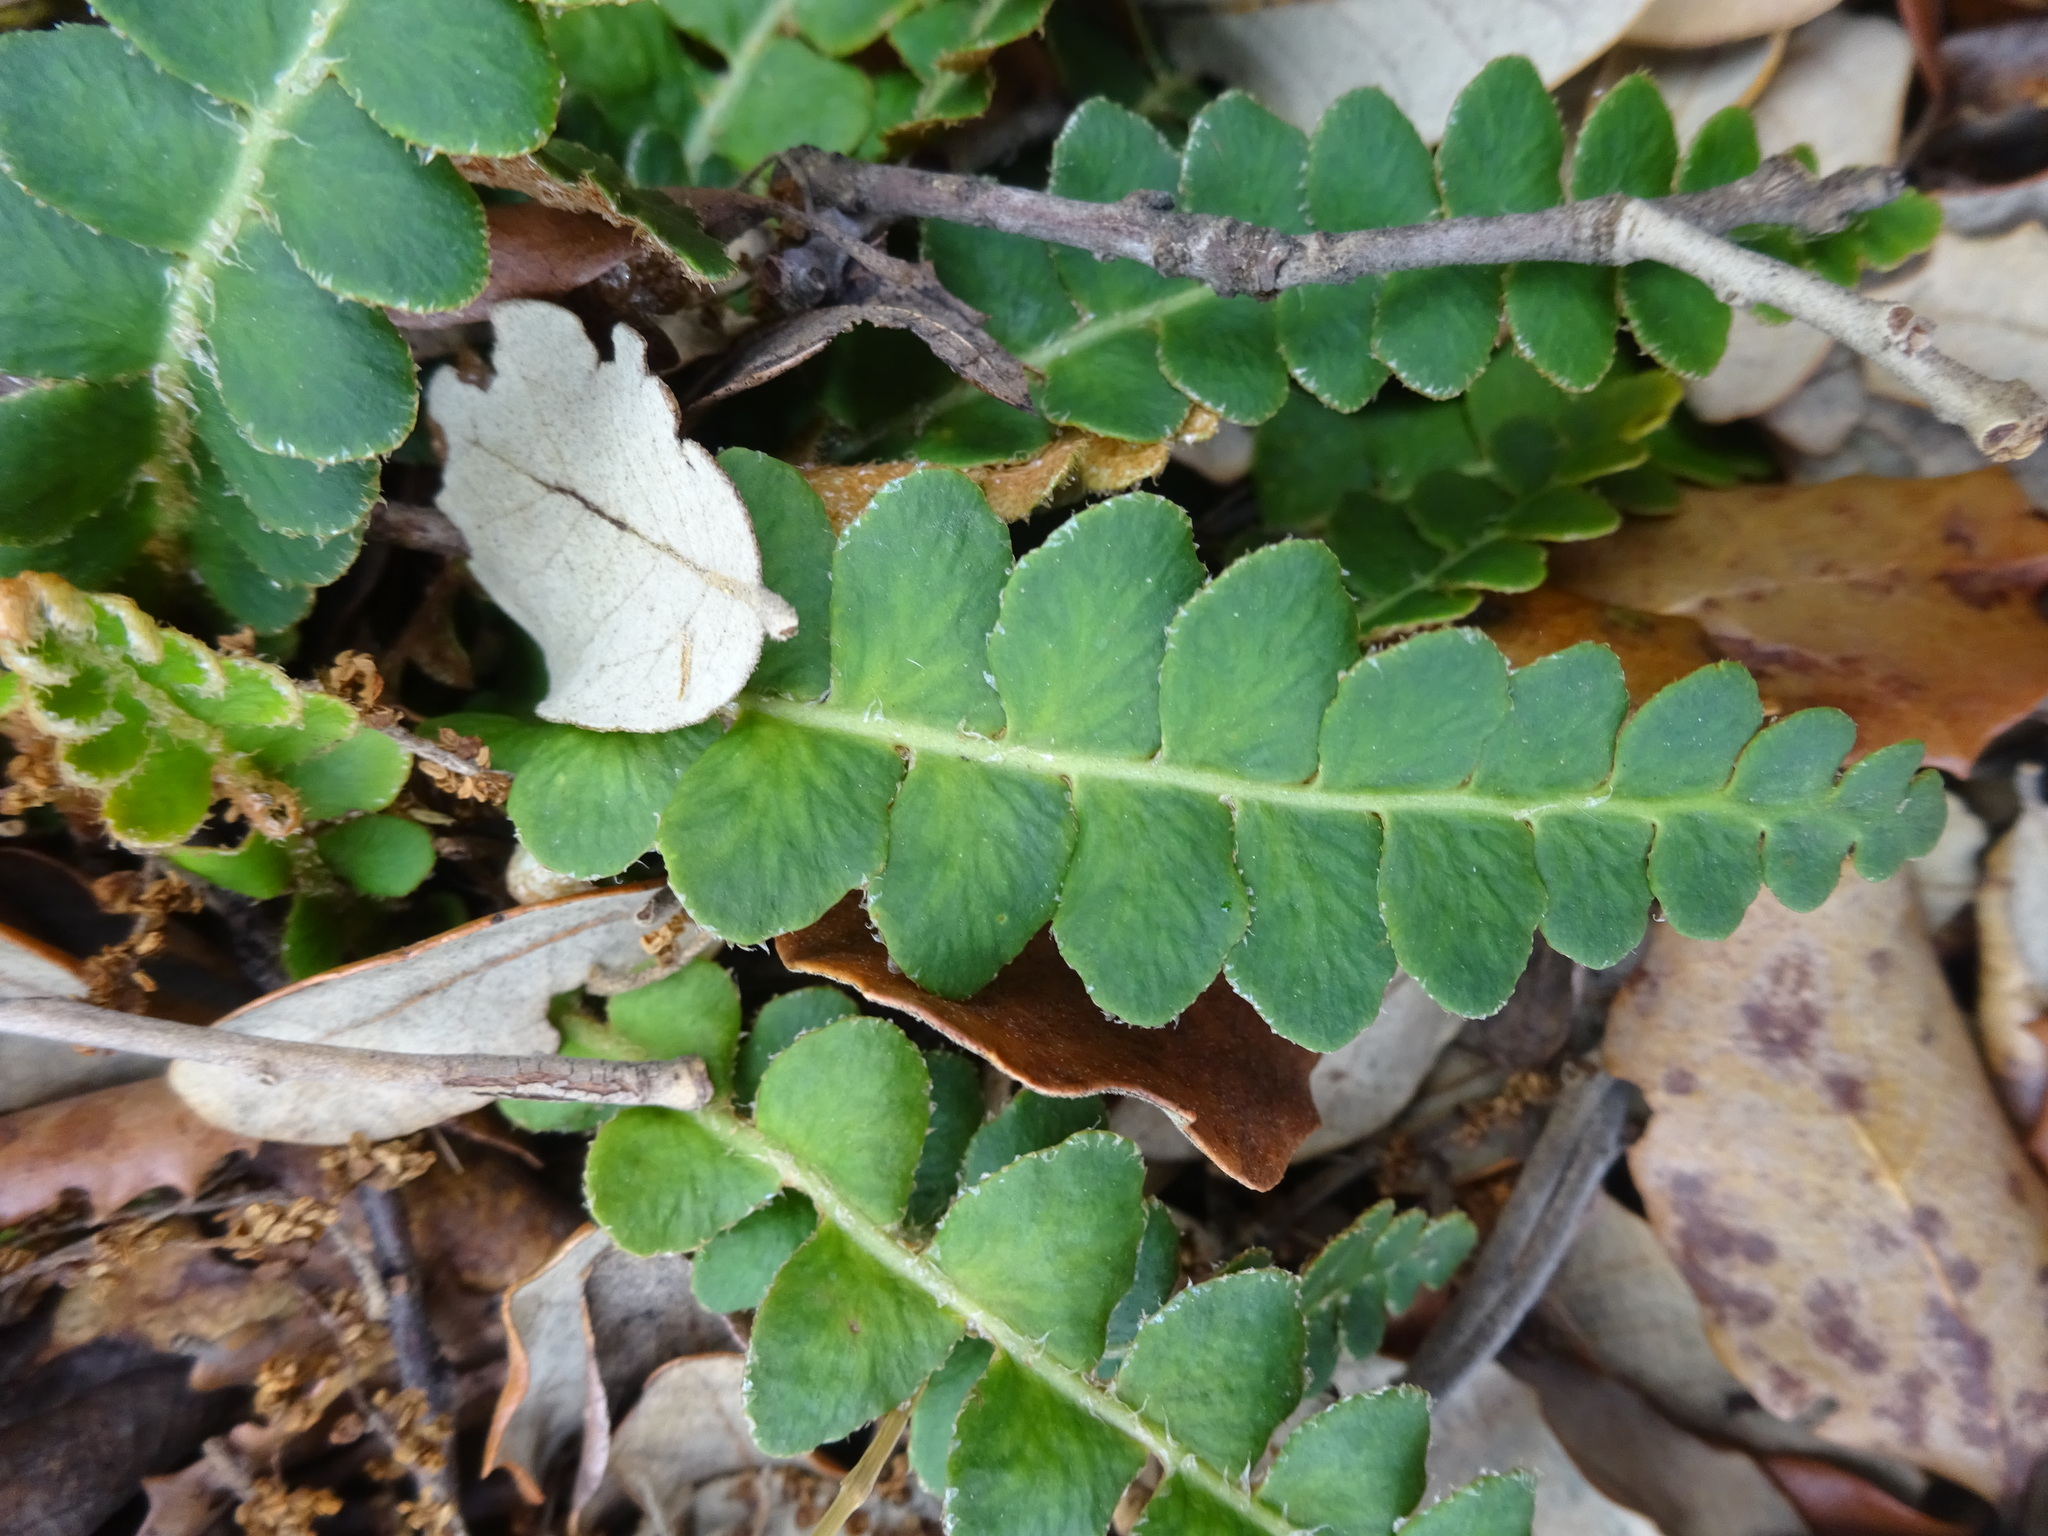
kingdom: Plantae
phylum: Tracheophyta
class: Polypodiopsida
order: Polypodiales
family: Aspleniaceae
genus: Asplenium
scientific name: Asplenium ceterach
